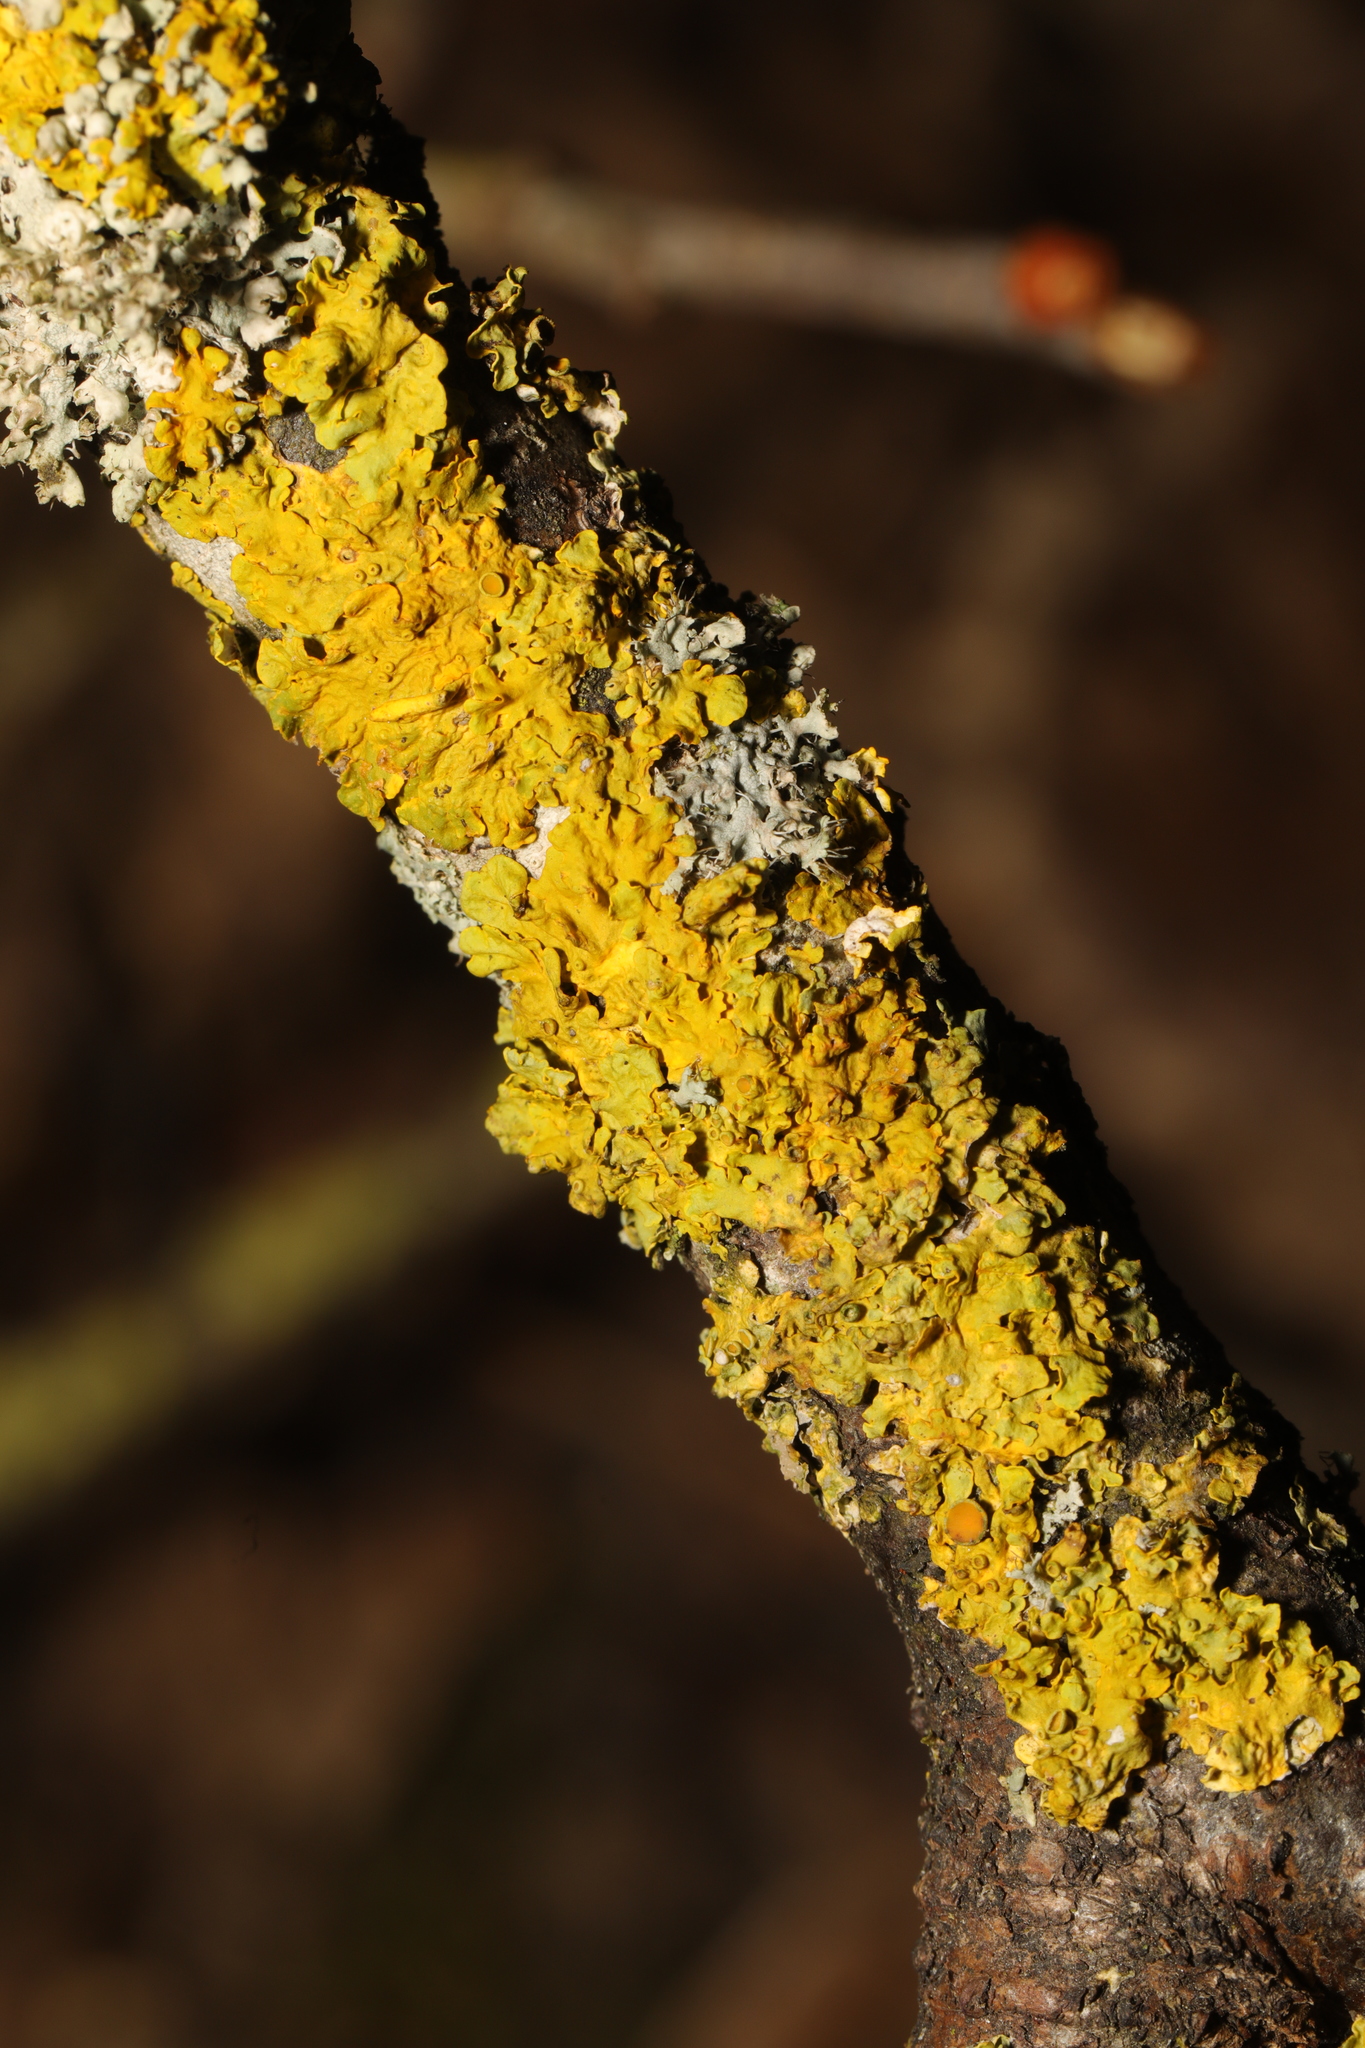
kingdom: Fungi
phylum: Ascomycota
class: Lecanoromycetes
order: Teloschistales
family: Teloschistaceae
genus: Xanthoria
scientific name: Xanthoria parietina
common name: Common orange lichen
